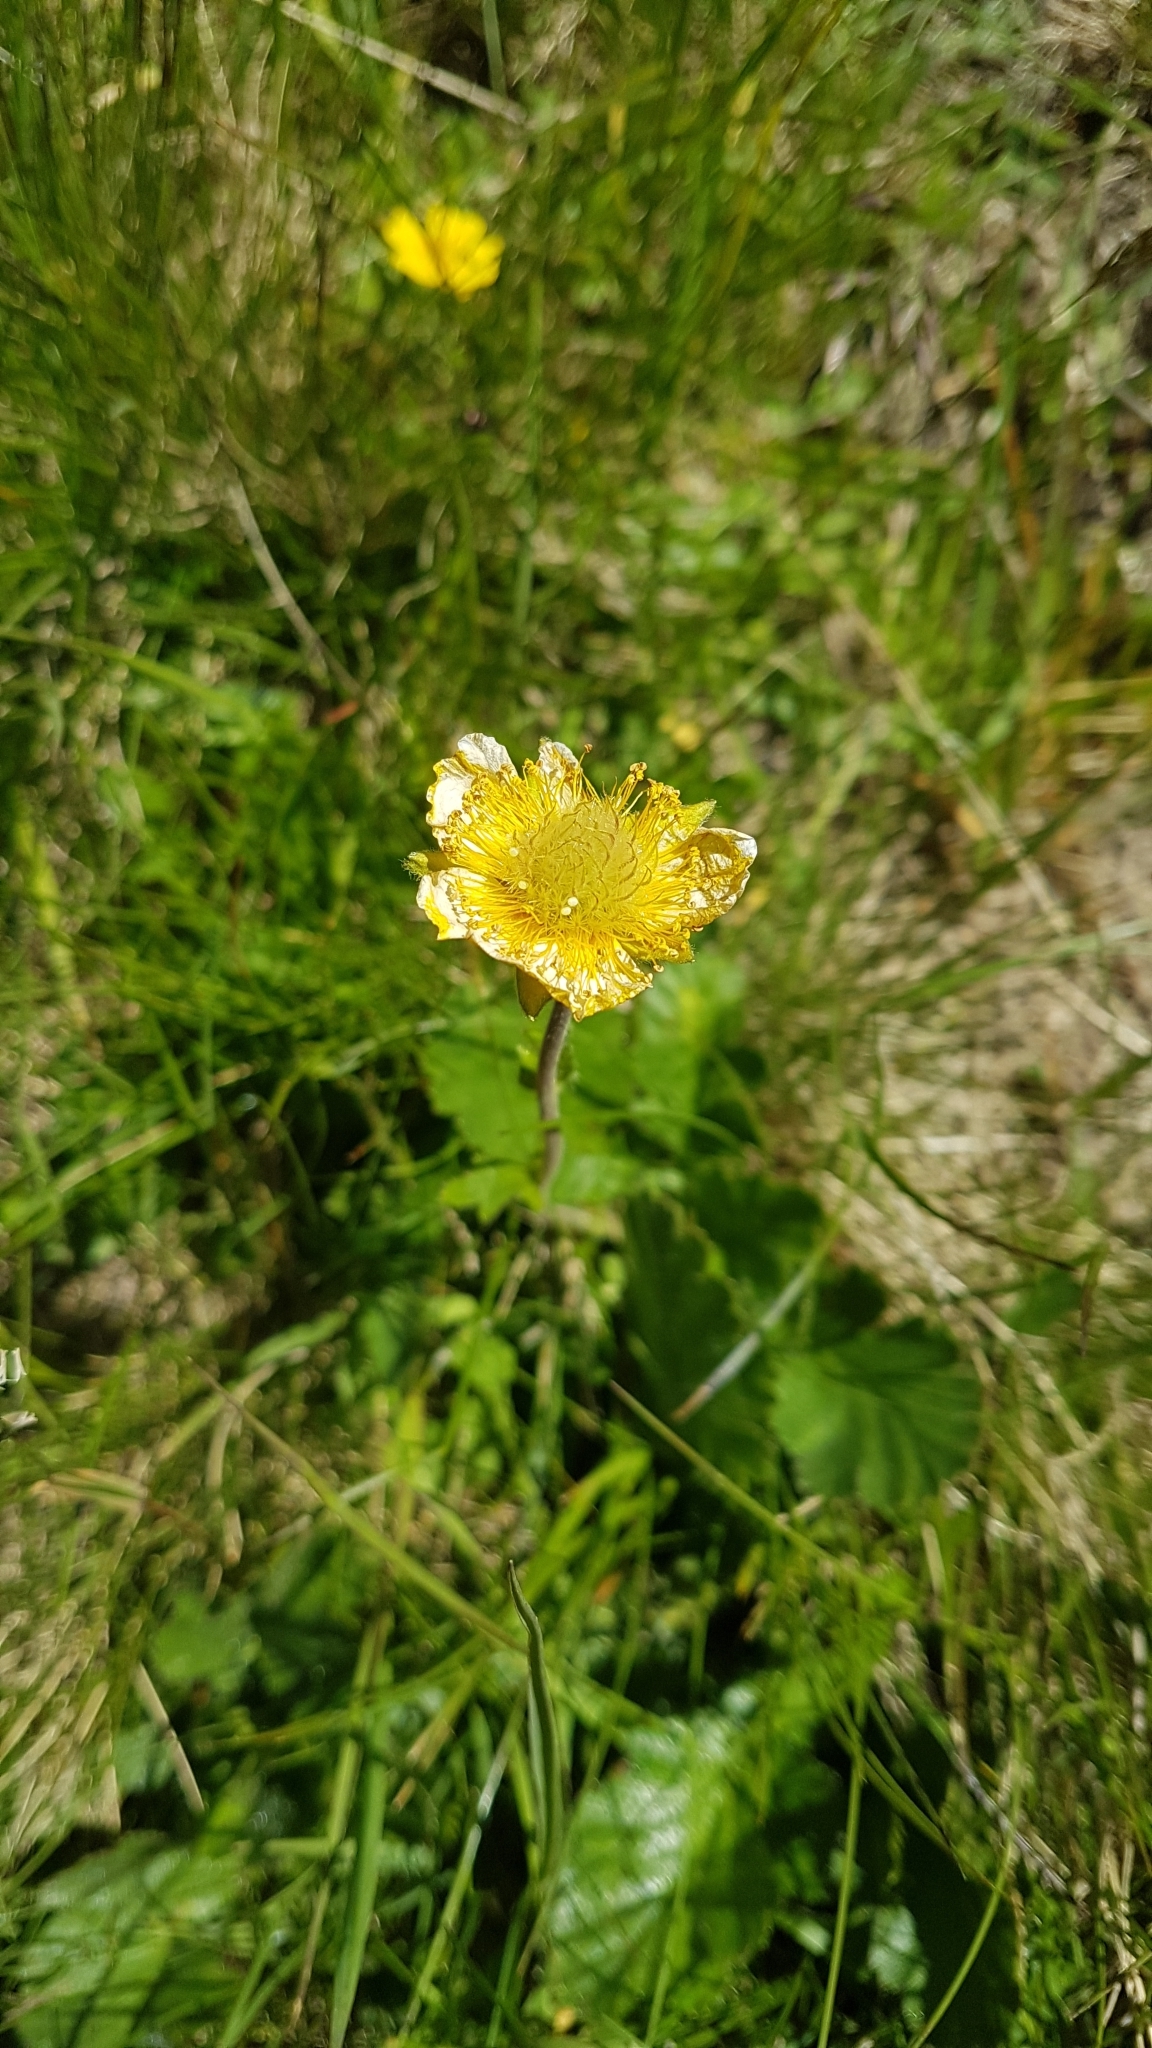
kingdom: Plantae
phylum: Tracheophyta
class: Magnoliopsida
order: Rosales
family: Rosaceae
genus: Geum
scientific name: Geum montanum
